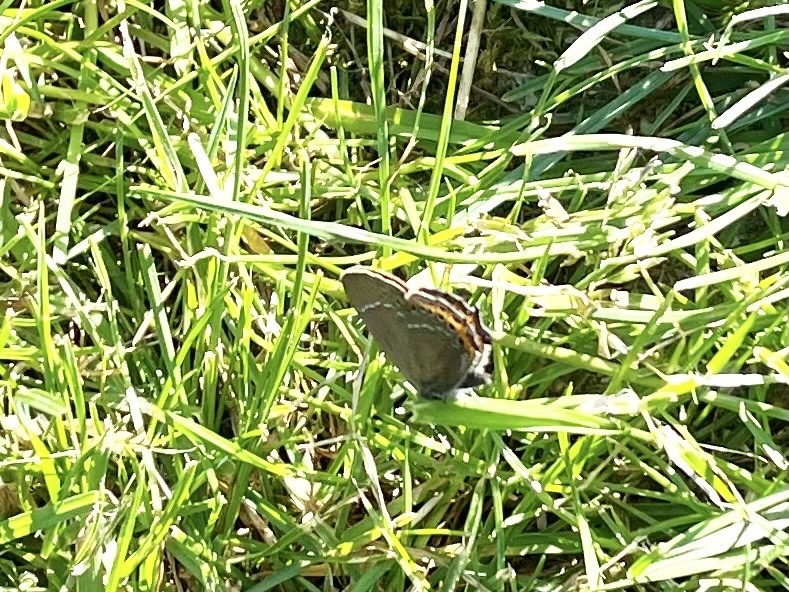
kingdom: Animalia
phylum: Arthropoda
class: Insecta
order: Lepidoptera
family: Lycaenidae
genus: Fixsenia
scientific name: Fixsenia pruni
